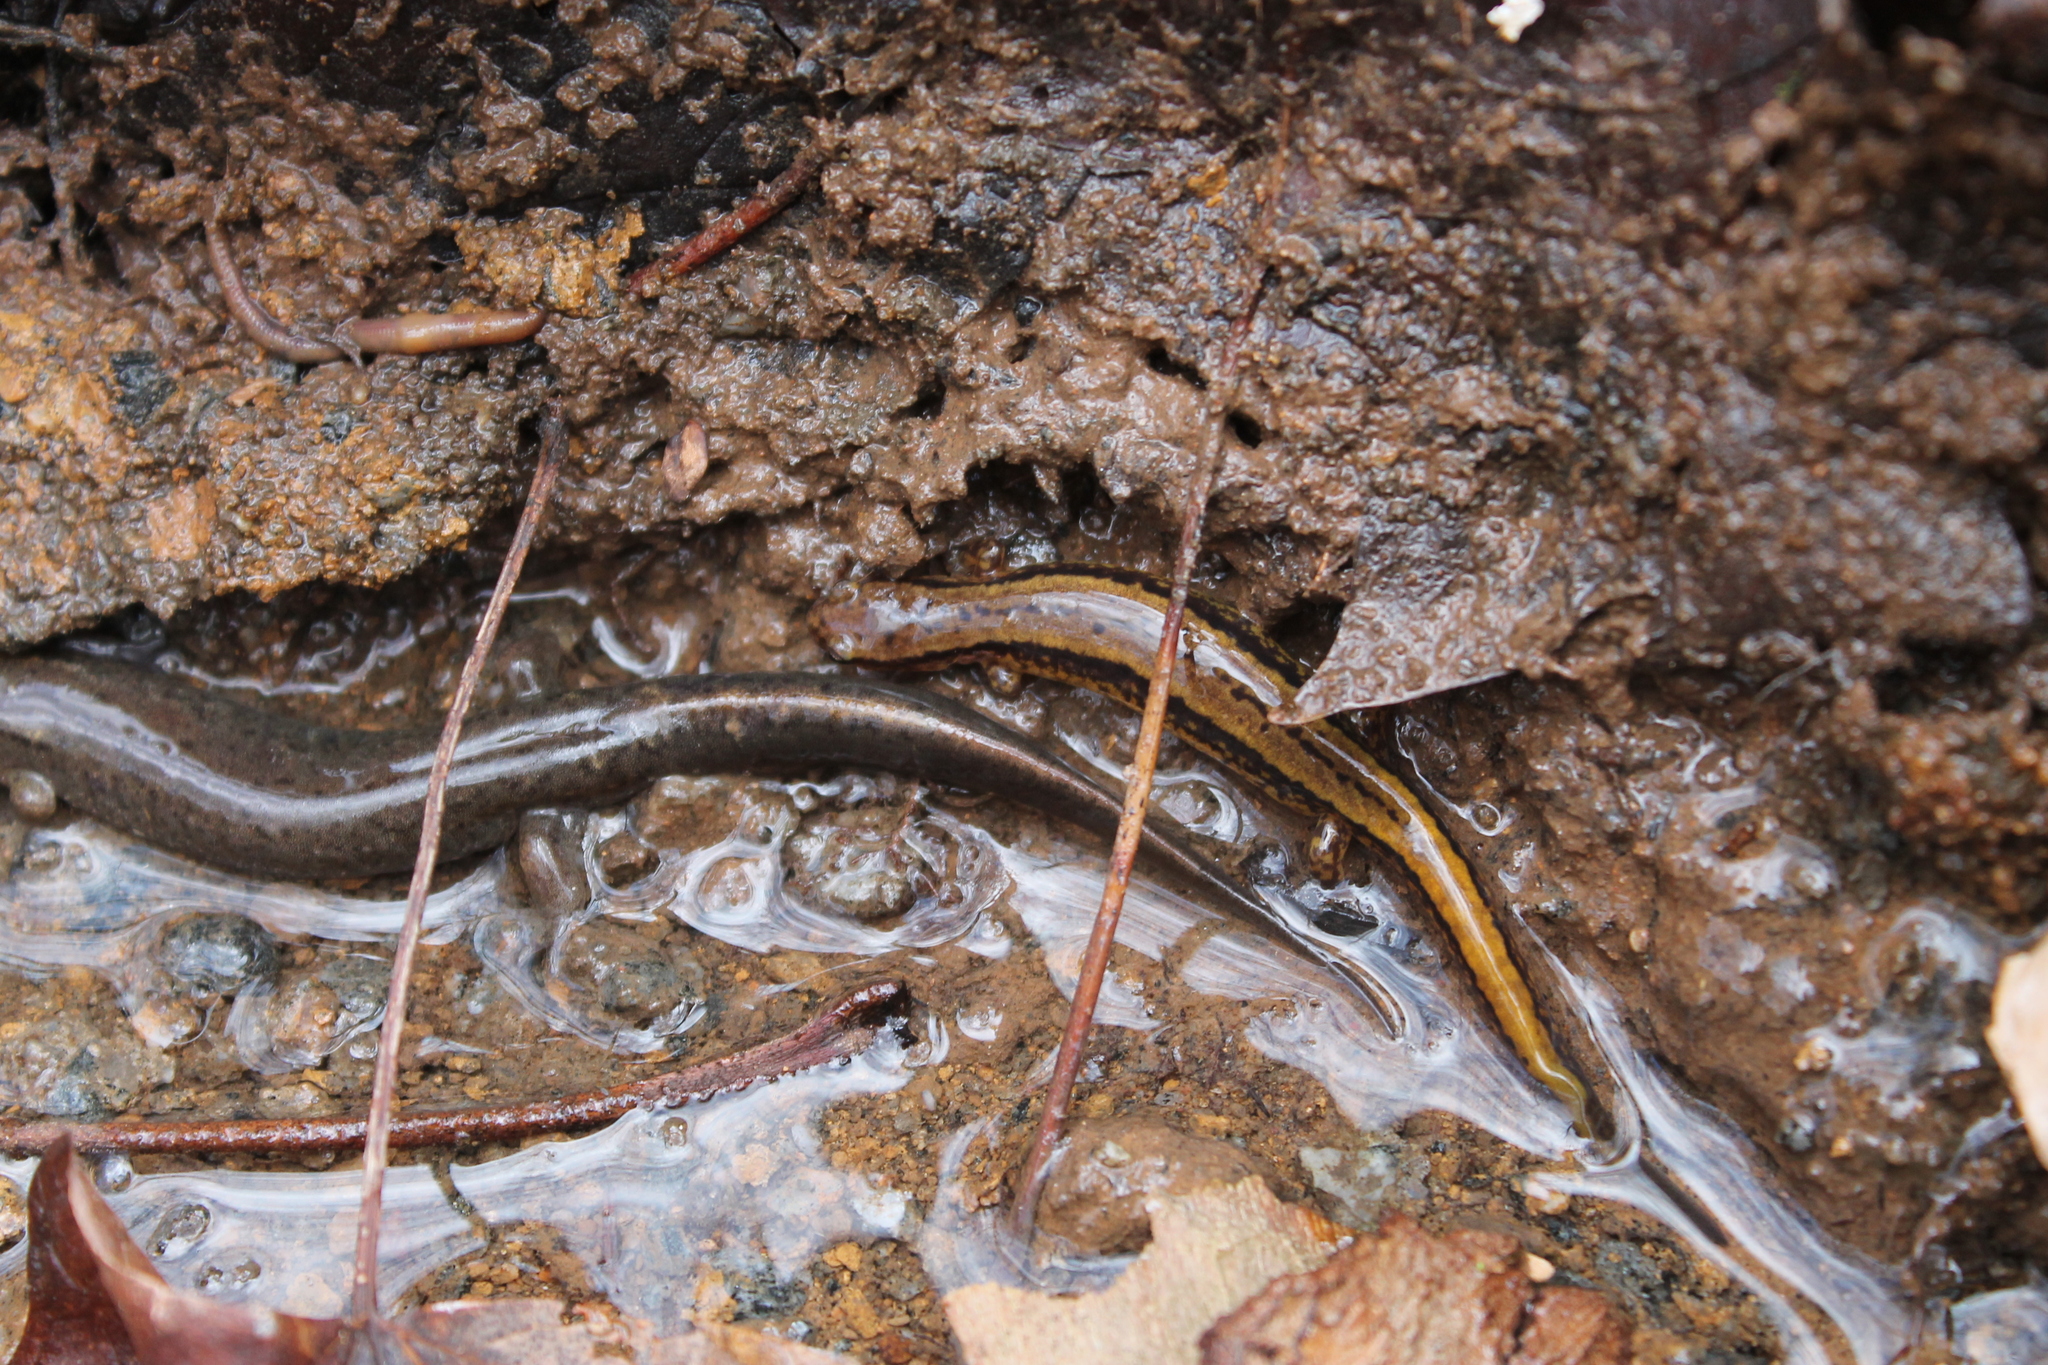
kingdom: Animalia
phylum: Chordata
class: Amphibia
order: Caudata
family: Plethodontidae
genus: Eurycea
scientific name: Eurycea cirrigera
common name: Southern two-lined salamander
